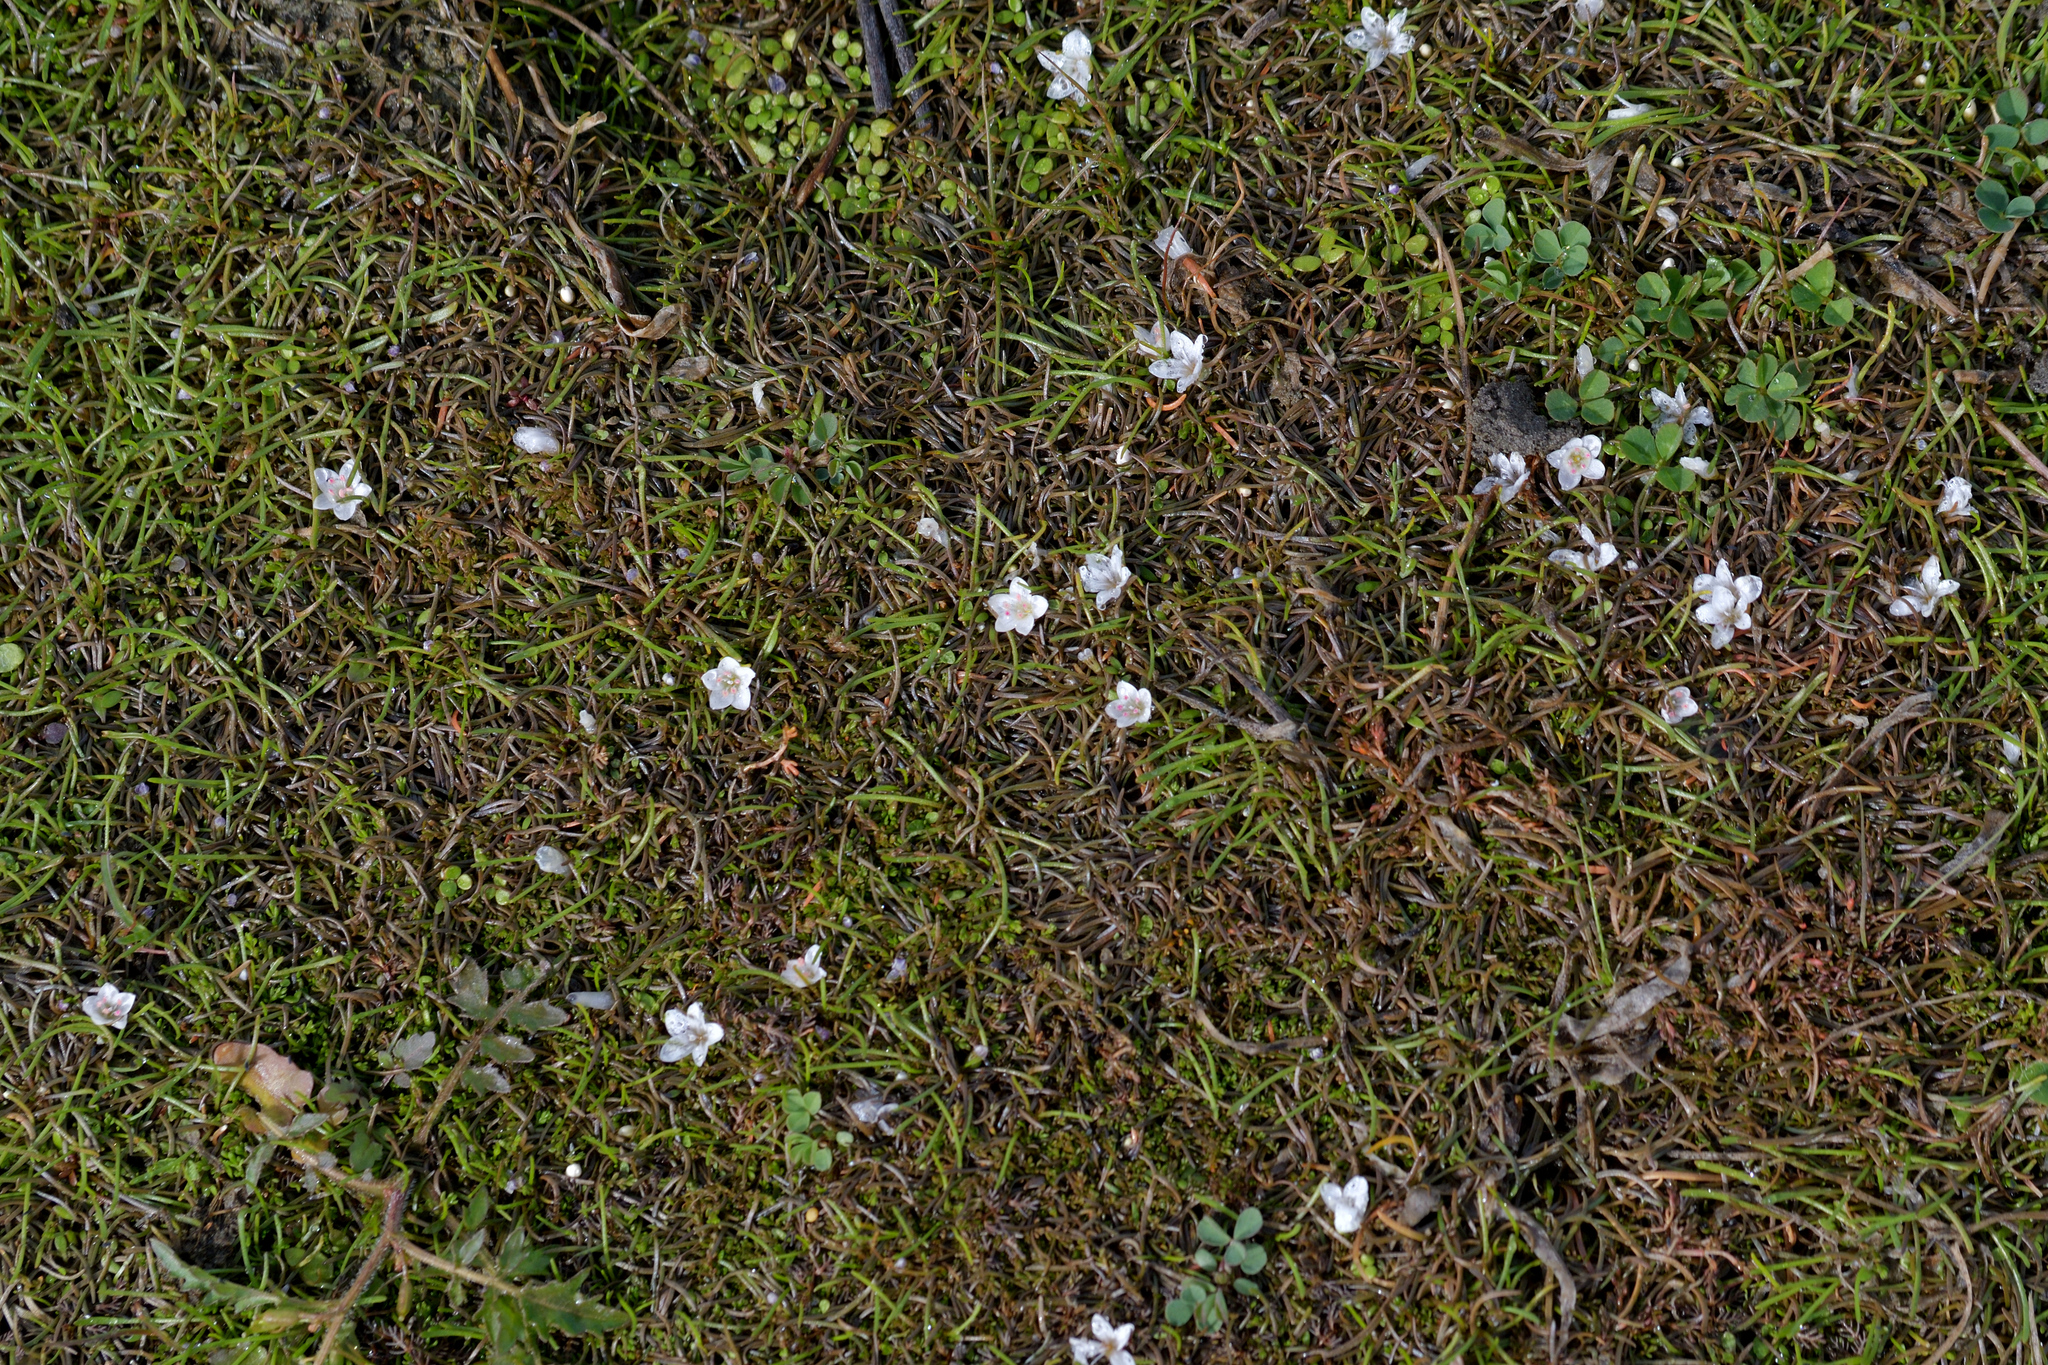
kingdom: Plantae
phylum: Tracheophyta
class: Magnoliopsida
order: Caryophyllales
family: Montiaceae
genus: Montia
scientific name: Montia angustifolia
